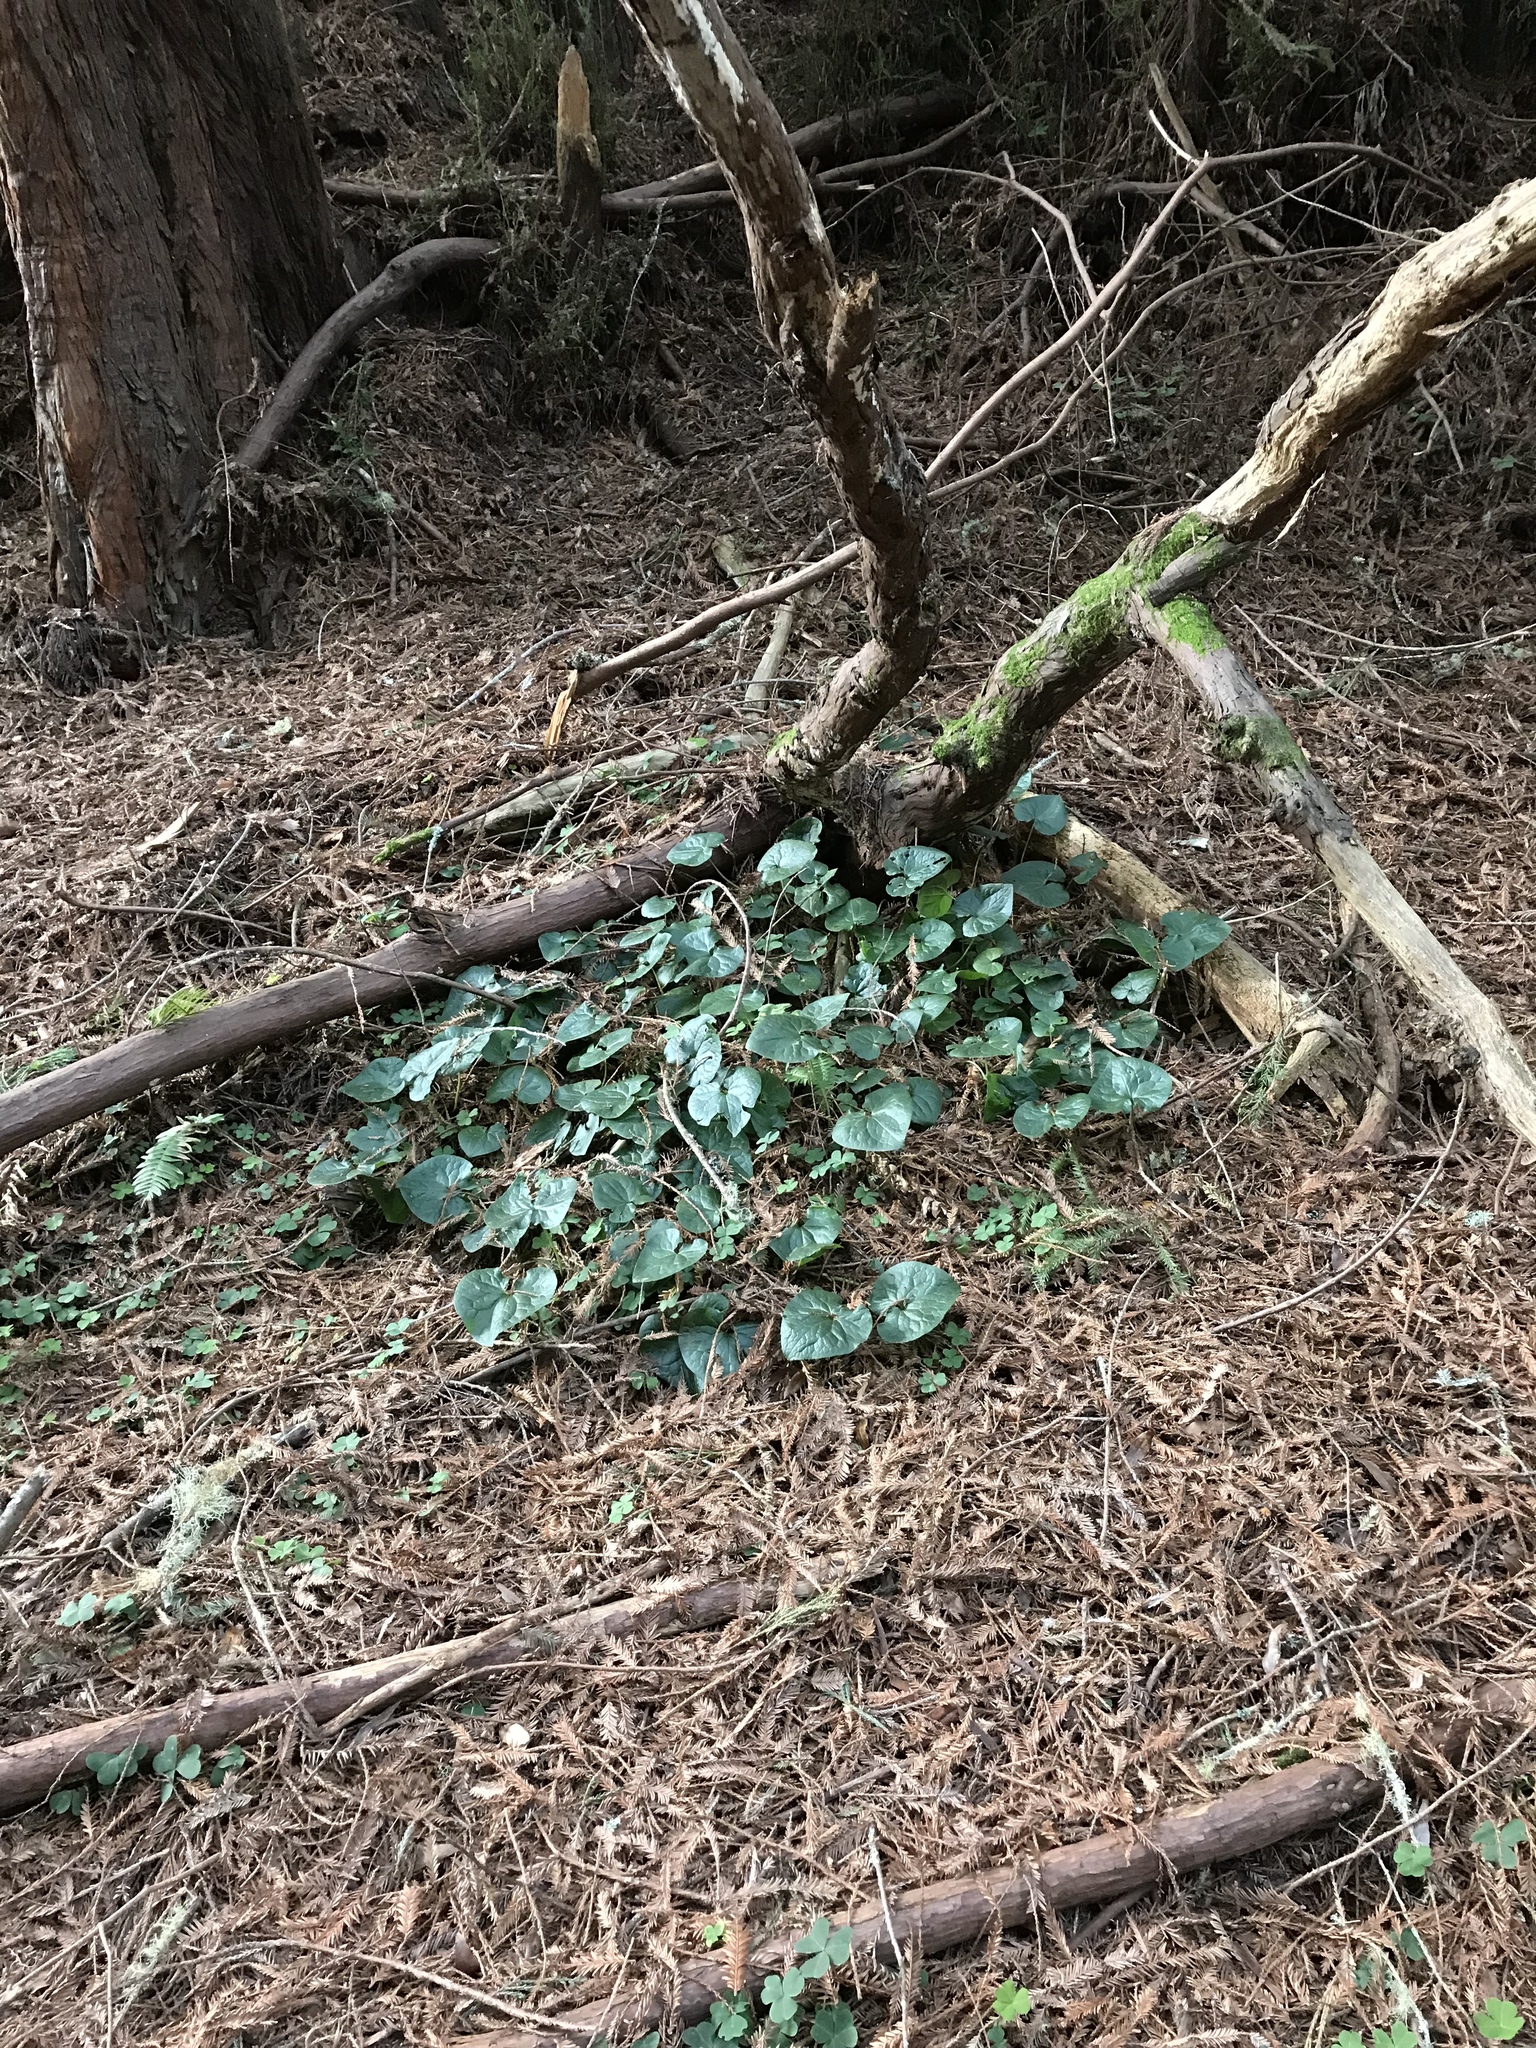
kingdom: Plantae
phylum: Tracheophyta
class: Magnoliopsida
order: Piperales
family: Aristolochiaceae
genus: Asarum
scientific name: Asarum caudatum
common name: Wild ginger
